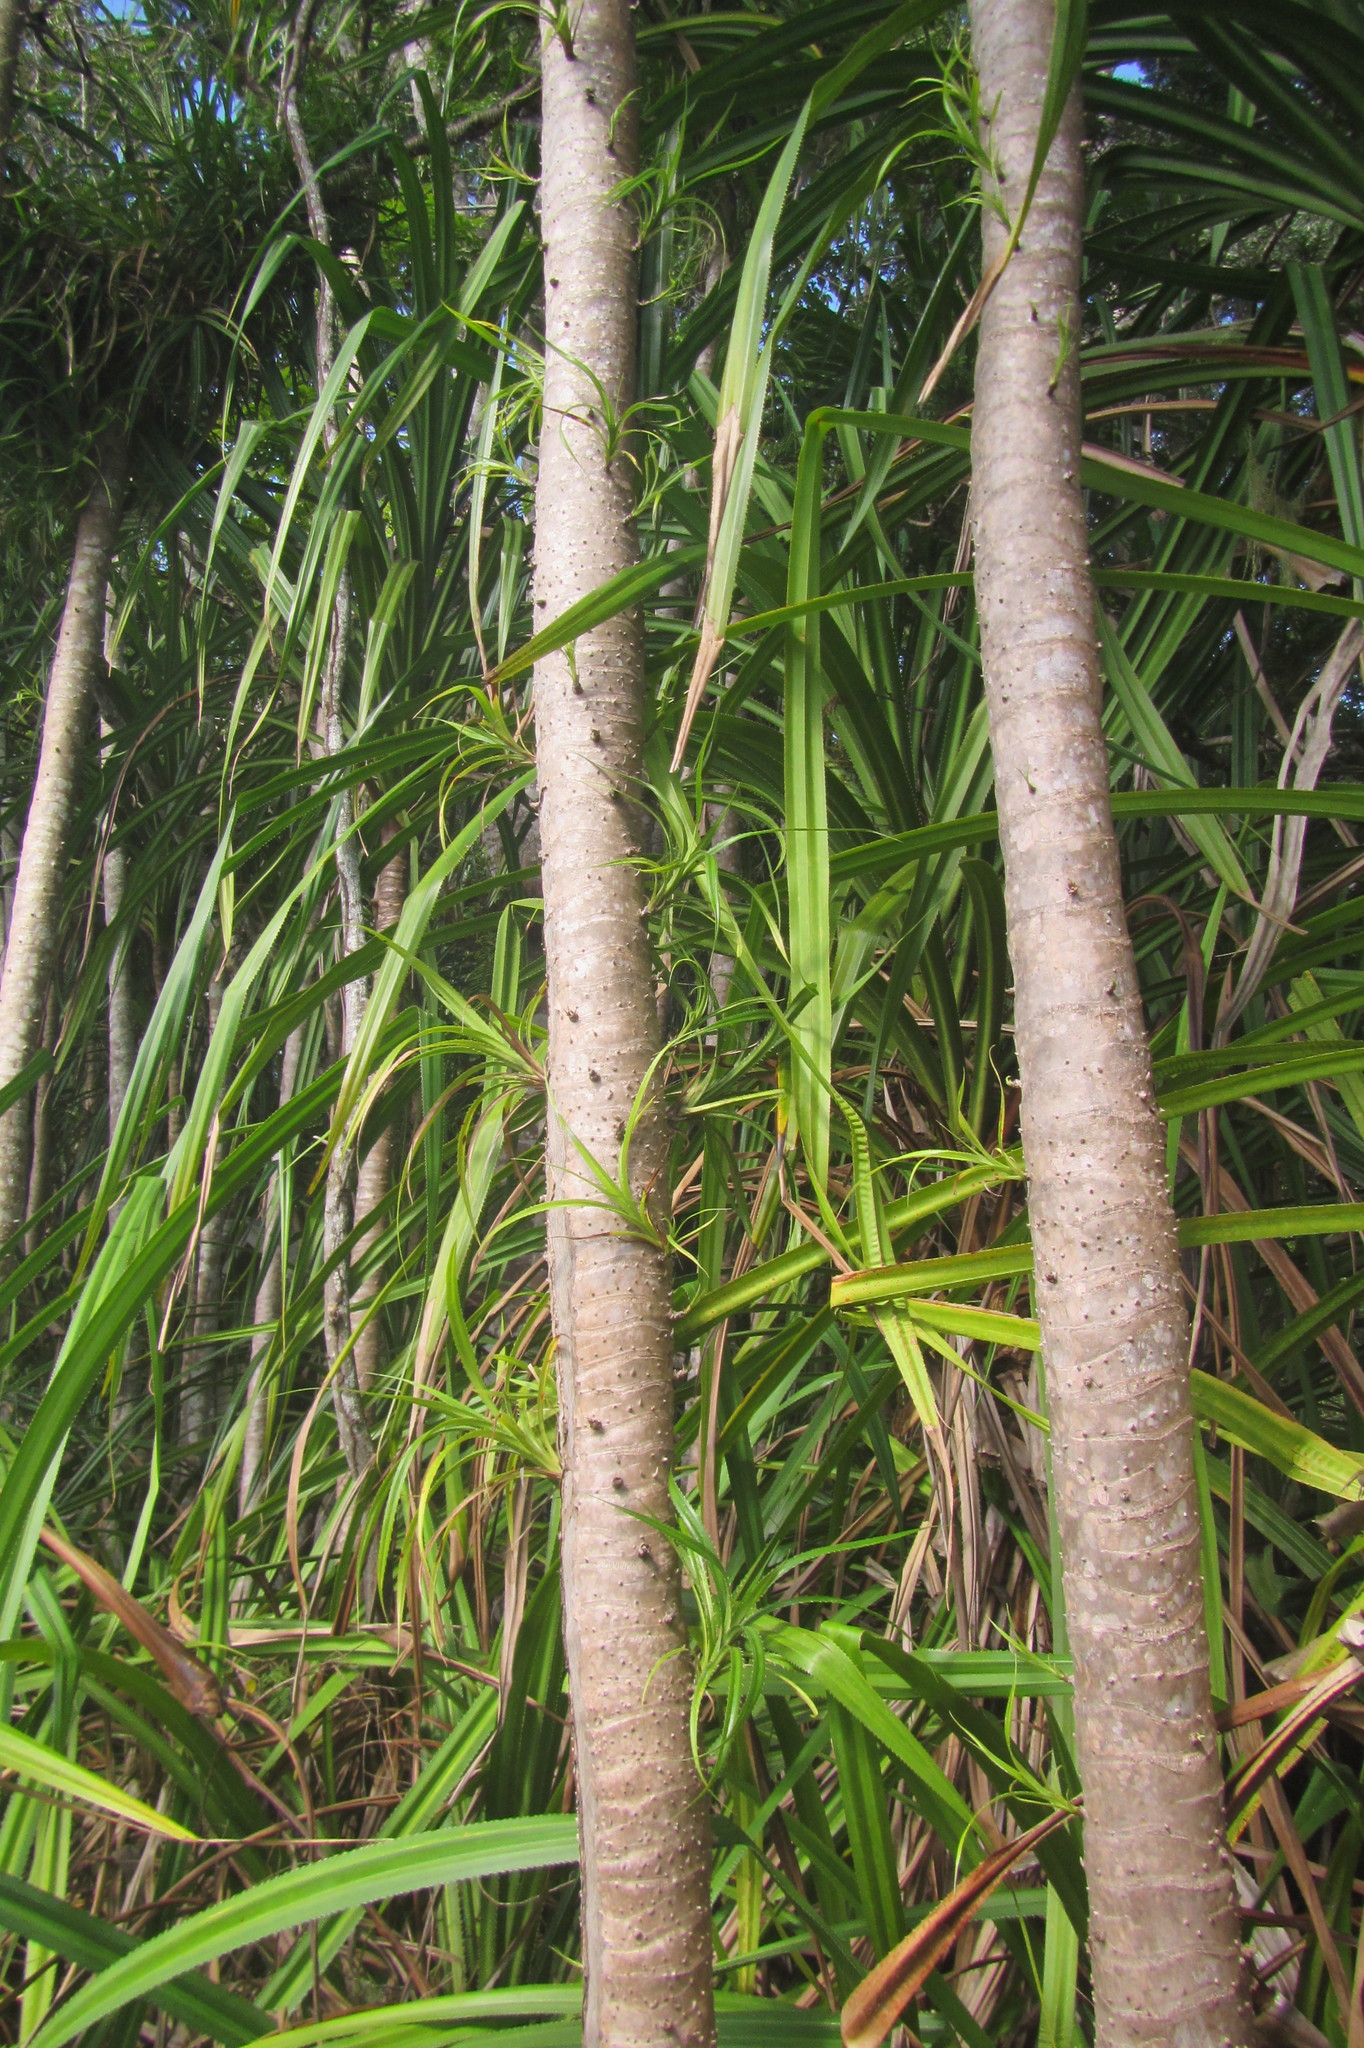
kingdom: Plantae
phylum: Tracheophyta
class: Liliopsida
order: Pandanales
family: Pandanaceae
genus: Pandanus
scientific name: Pandanus gemmifer
